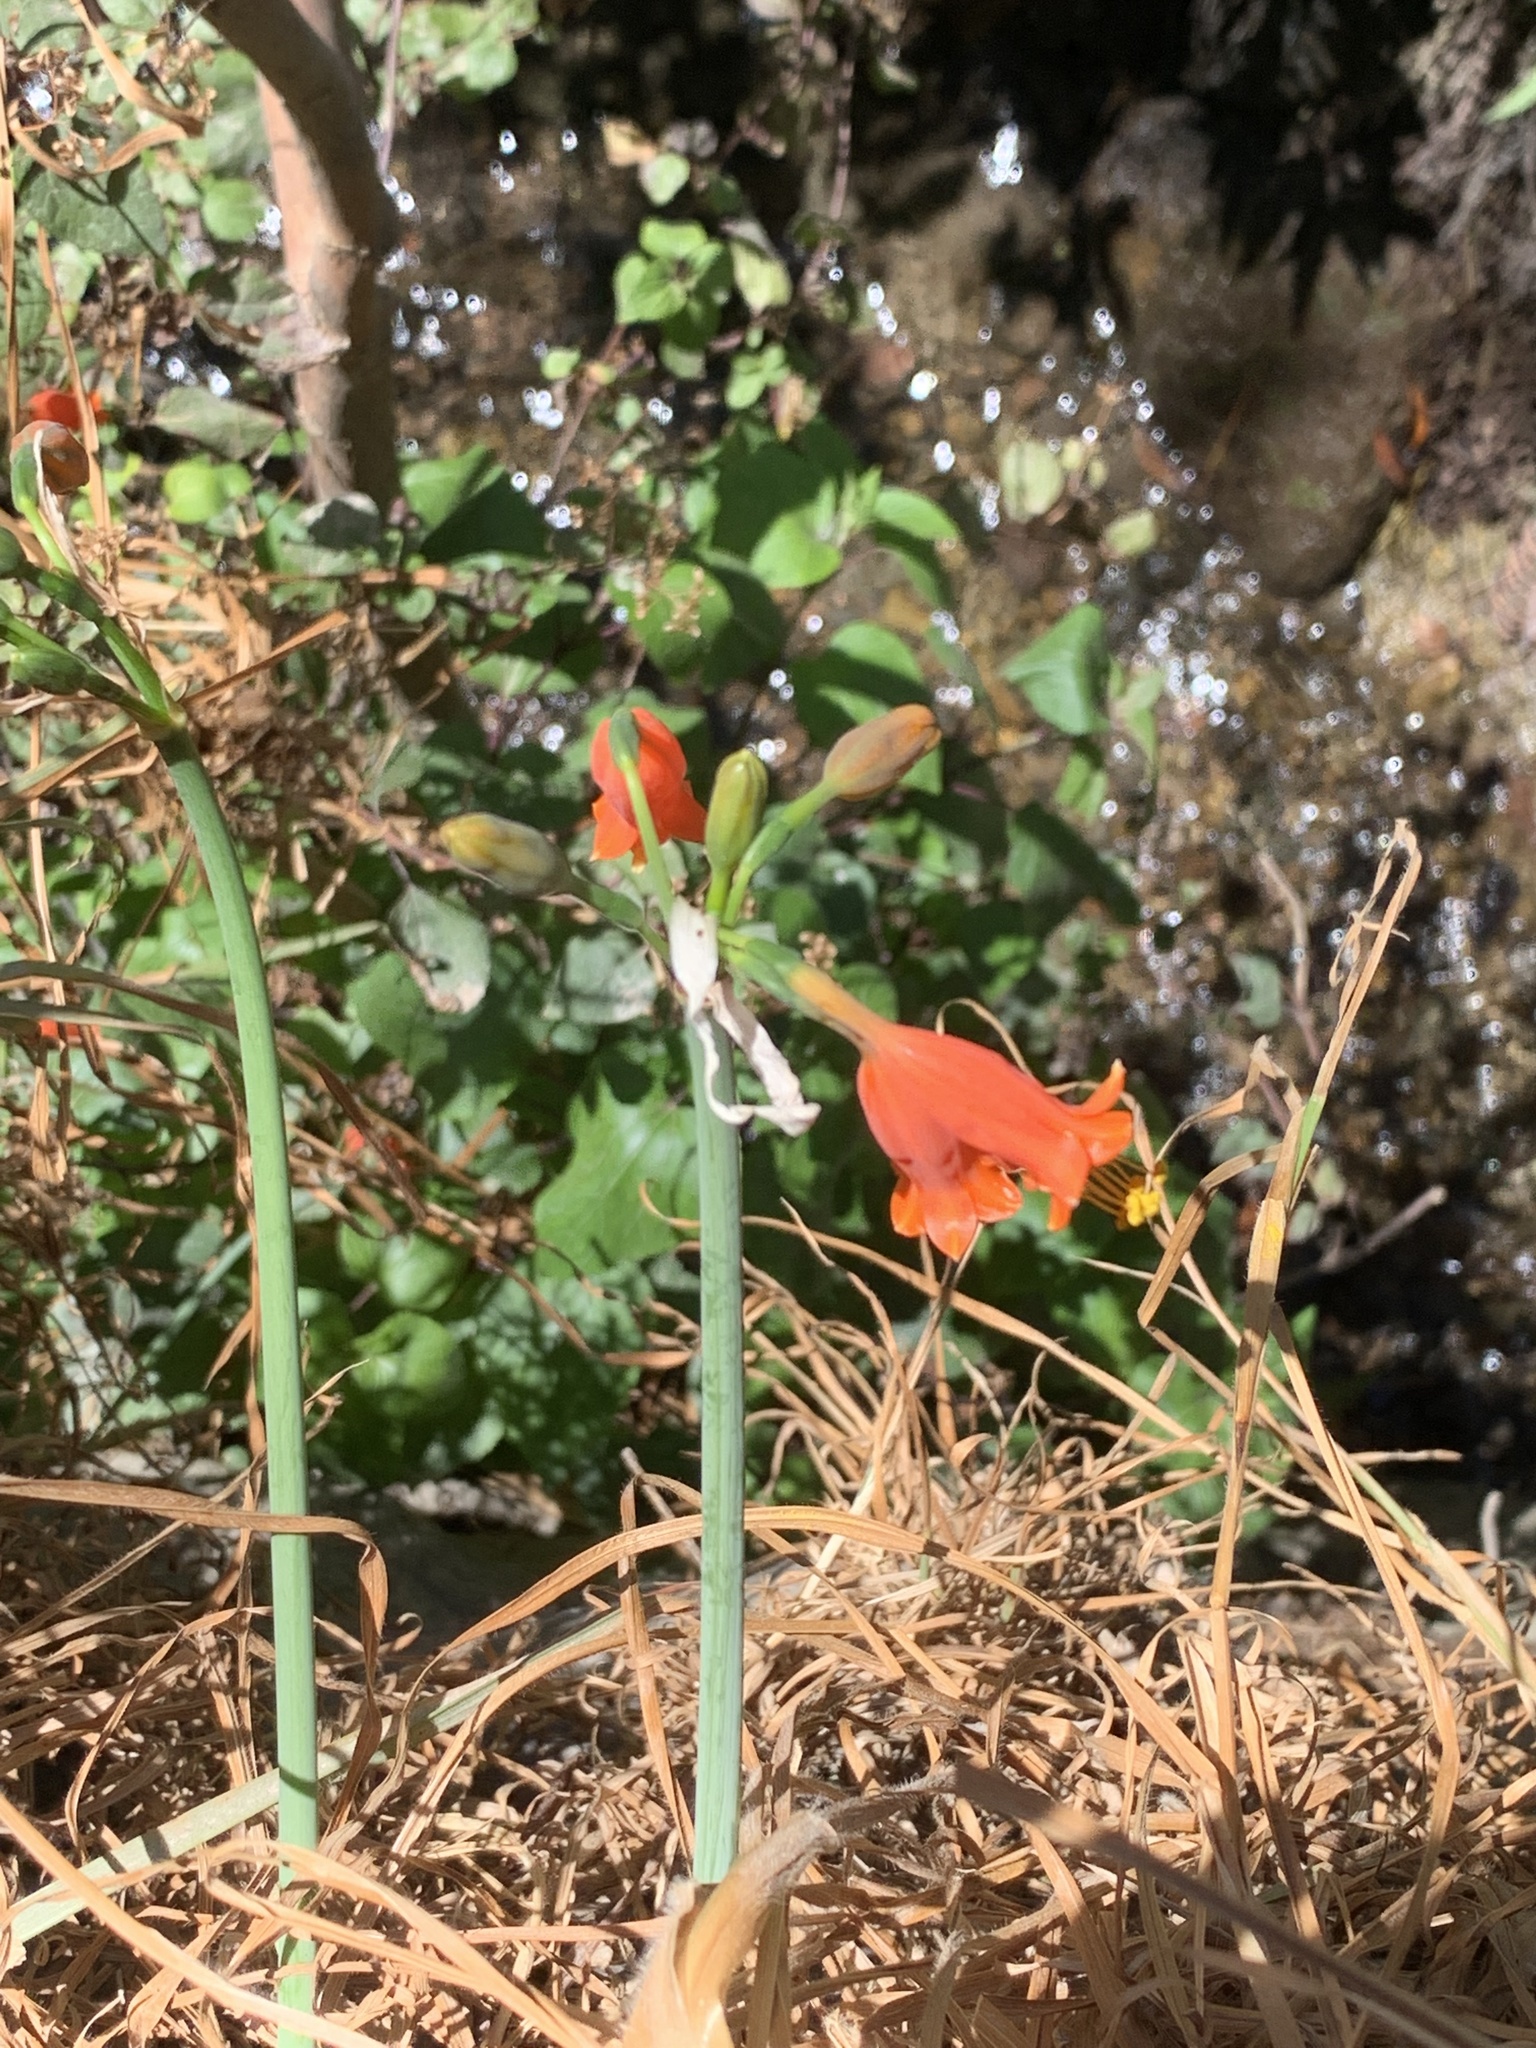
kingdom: Plantae
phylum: Tracheophyta
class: Liliopsida
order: Asparagales
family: Amaryllidaceae
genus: Stenomesson
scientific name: Stenomesson miniatum
